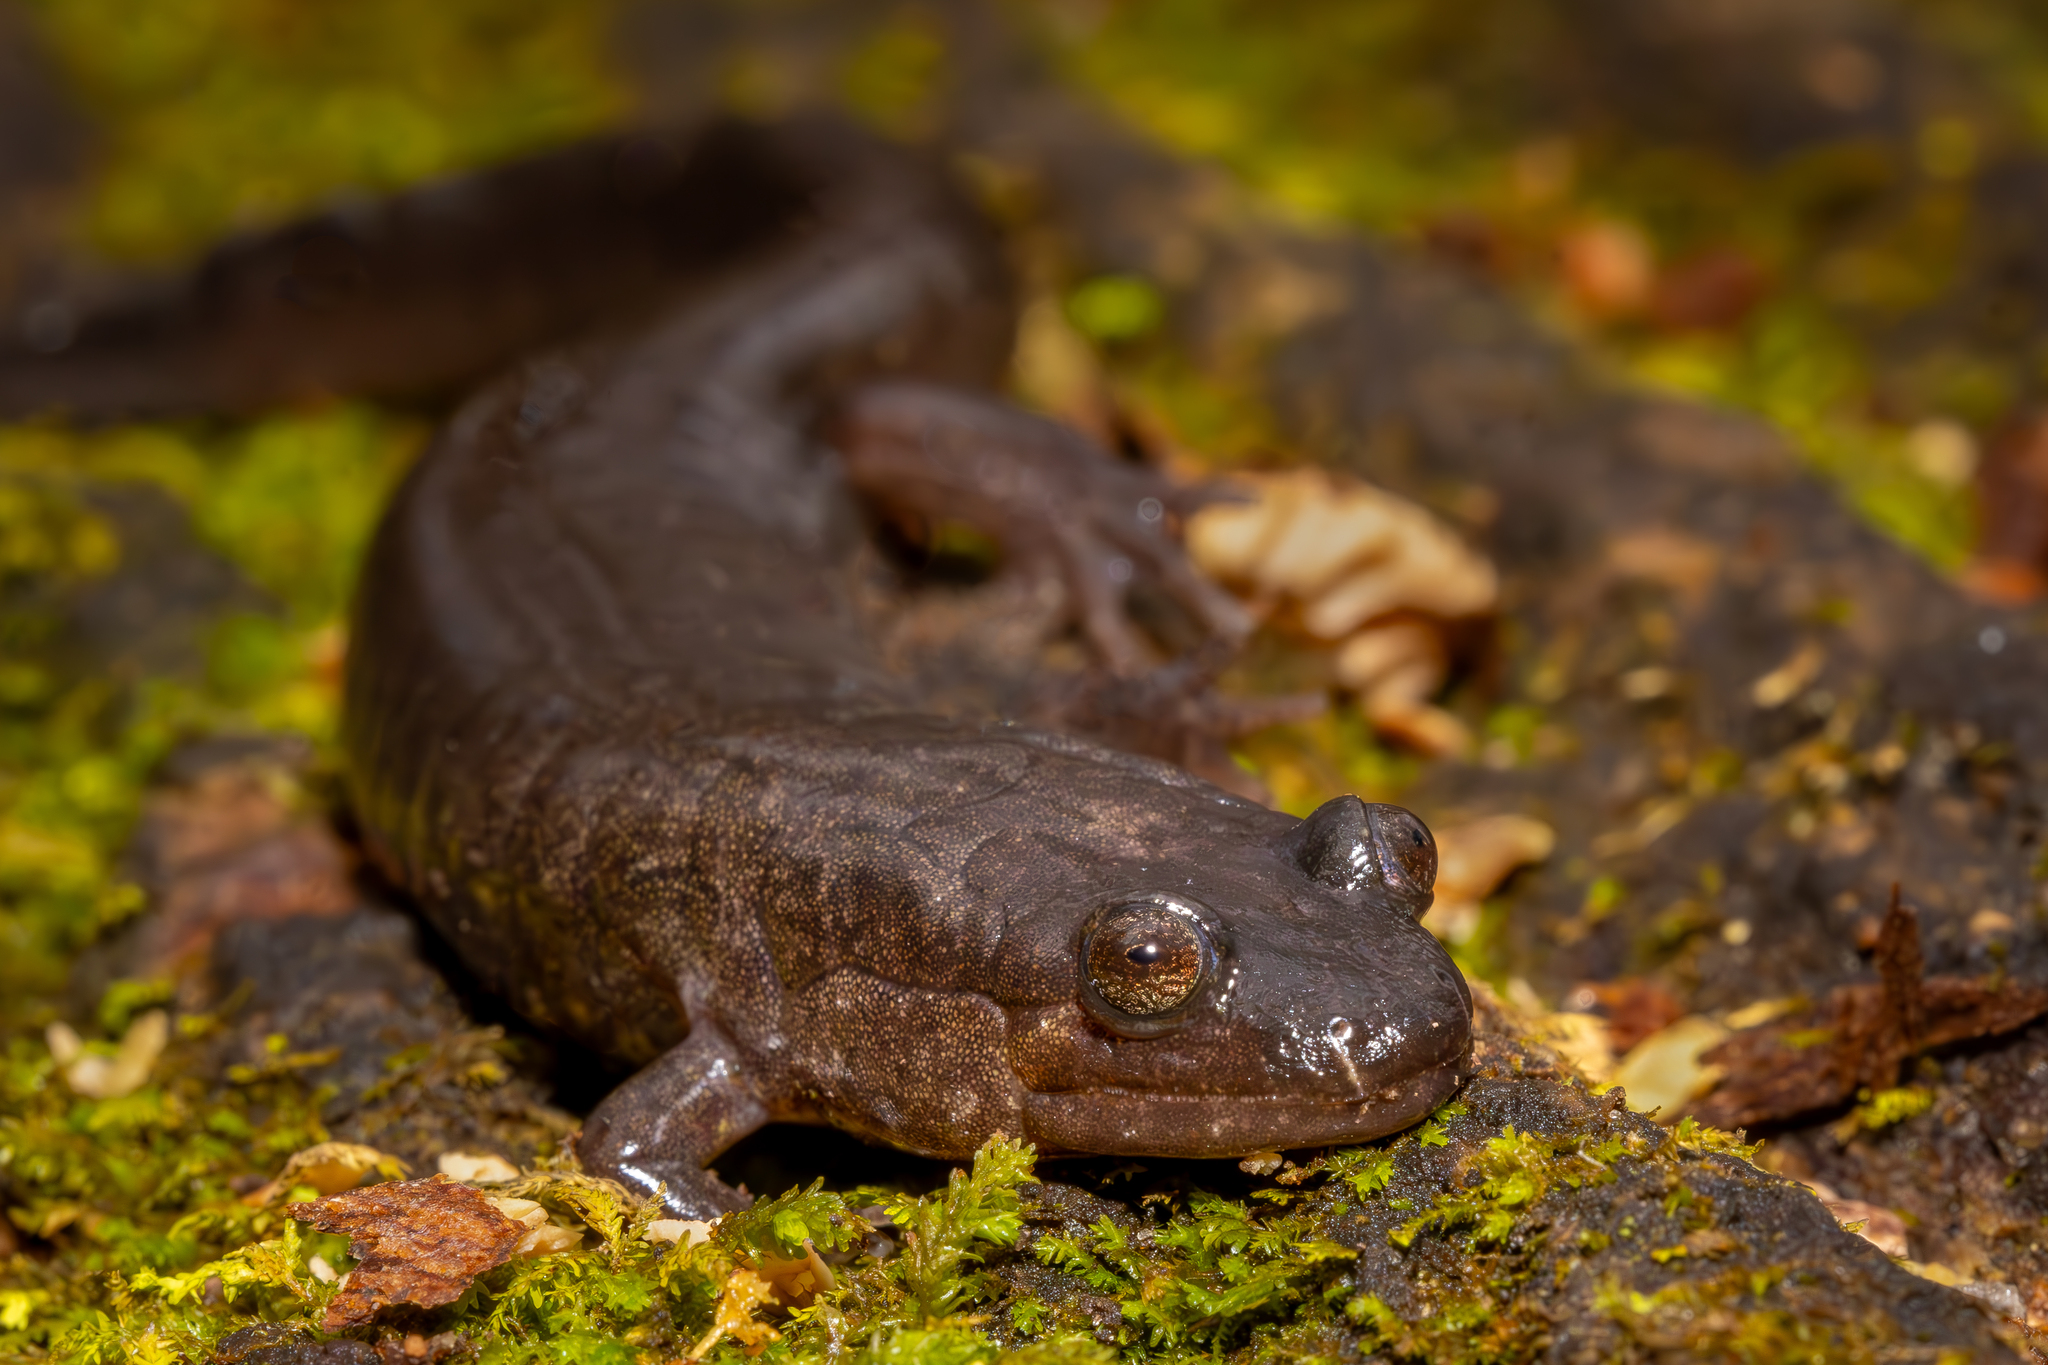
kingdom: Animalia
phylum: Chordata
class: Amphibia
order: Caudata
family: Plethodontidae
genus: Desmognathus
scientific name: Desmognathus
